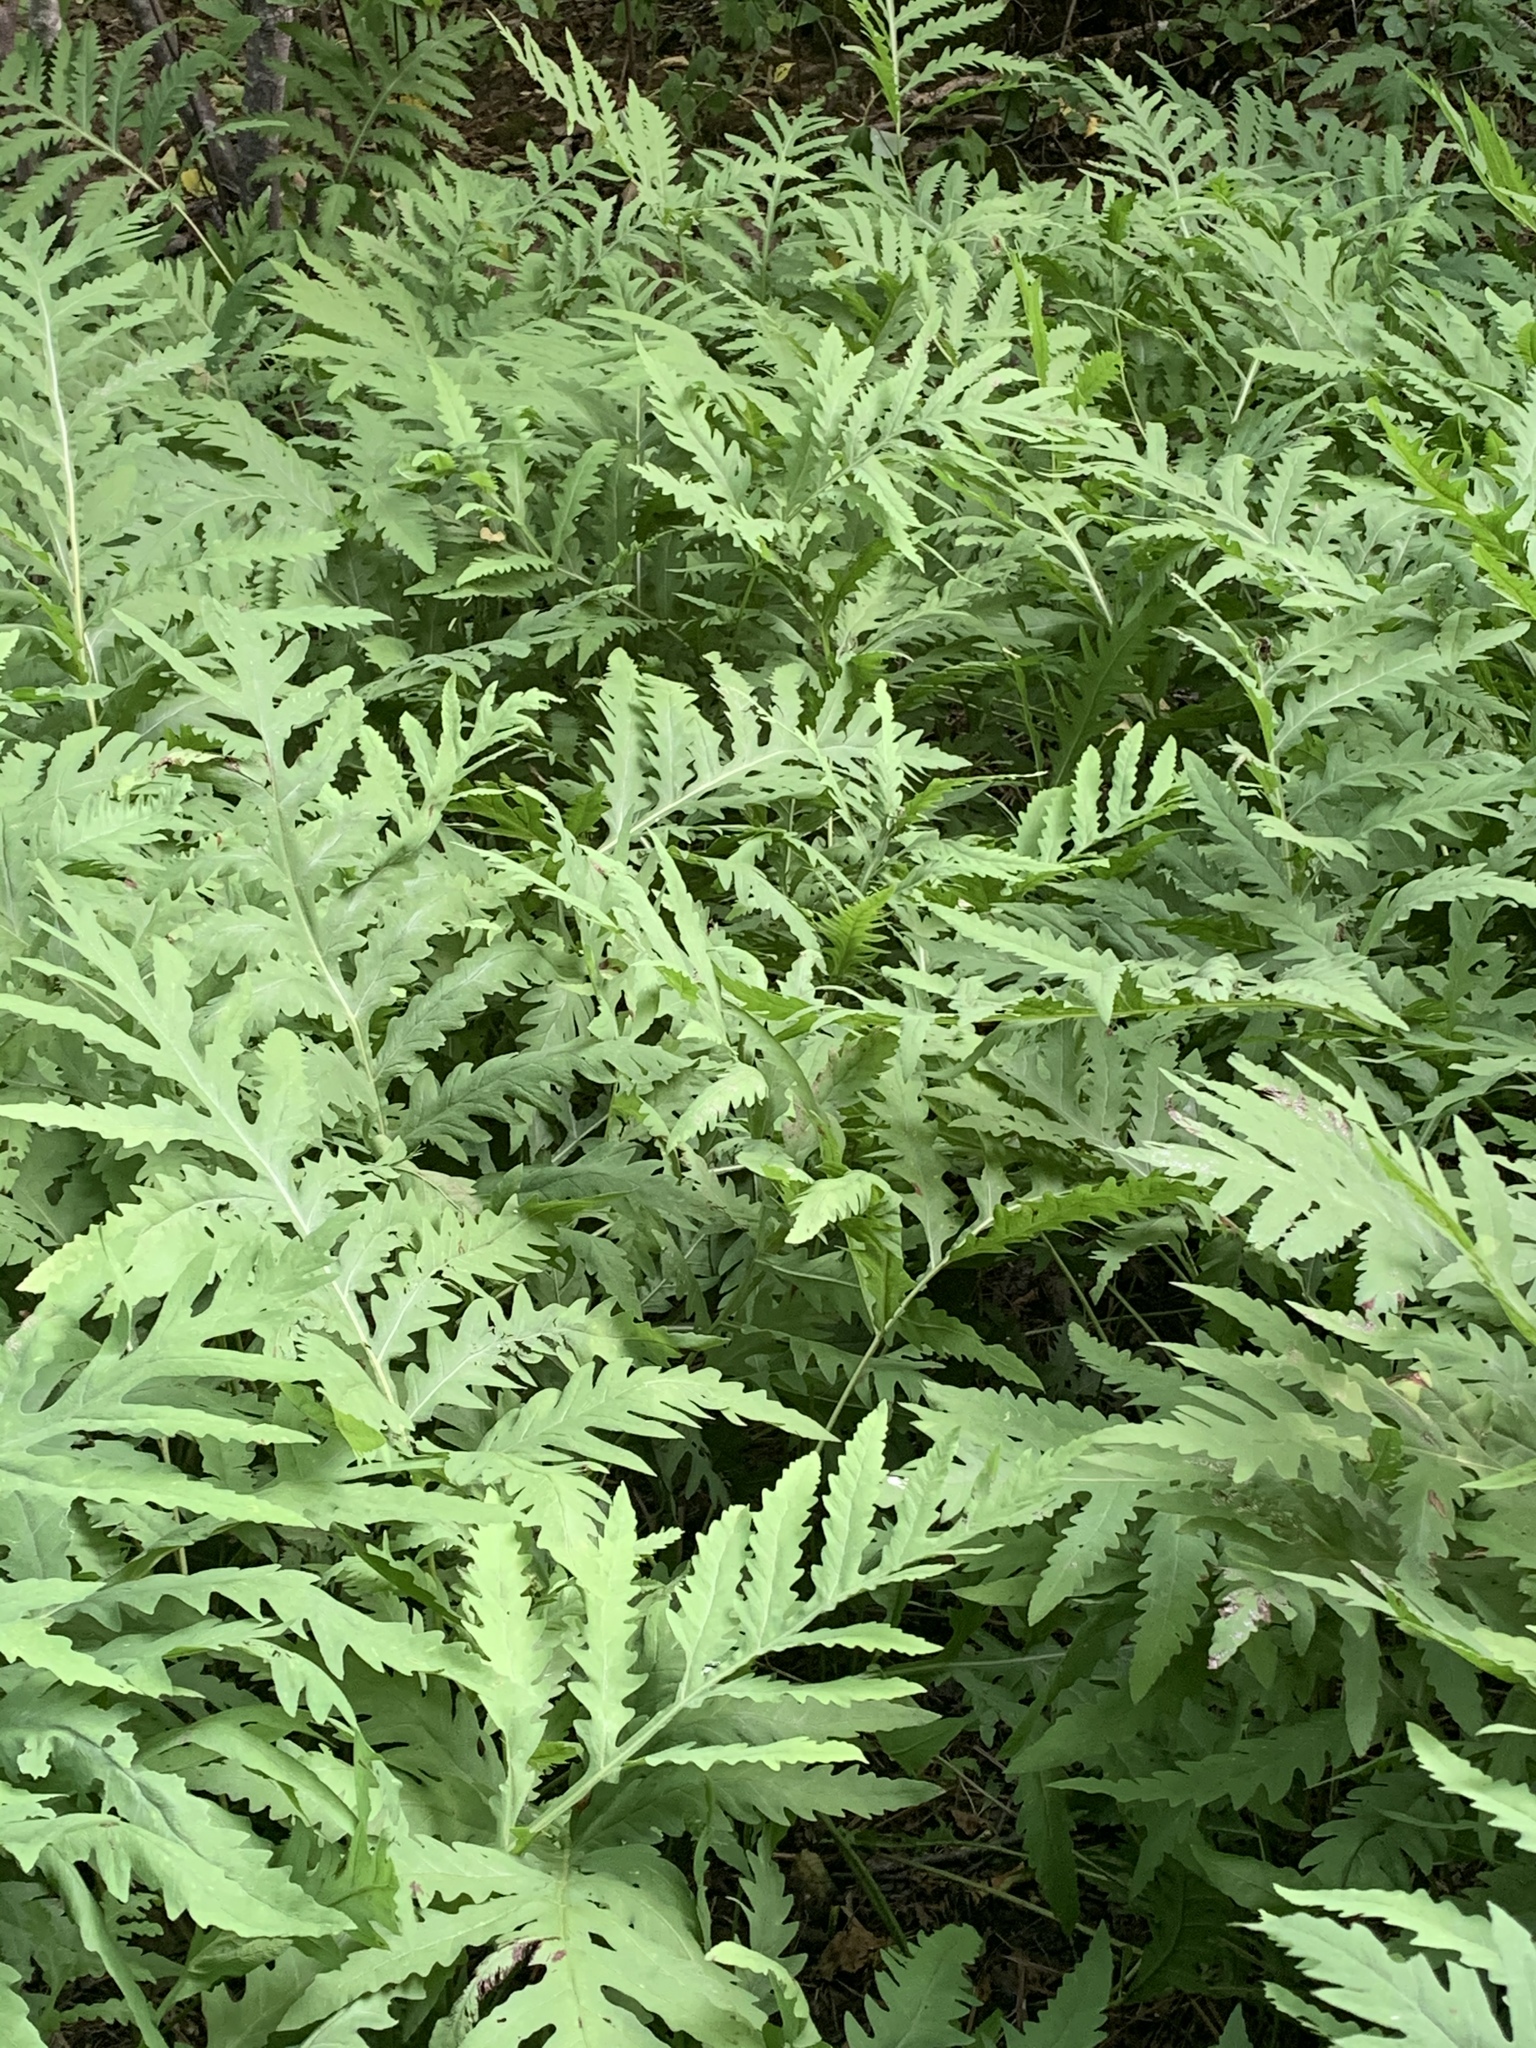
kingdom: Plantae
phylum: Tracheophyta
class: Polypodiopsida
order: Polypodiales
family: Onocleaceae
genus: Onoclea
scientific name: Onoclea sensibilis
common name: Sensitive fern
